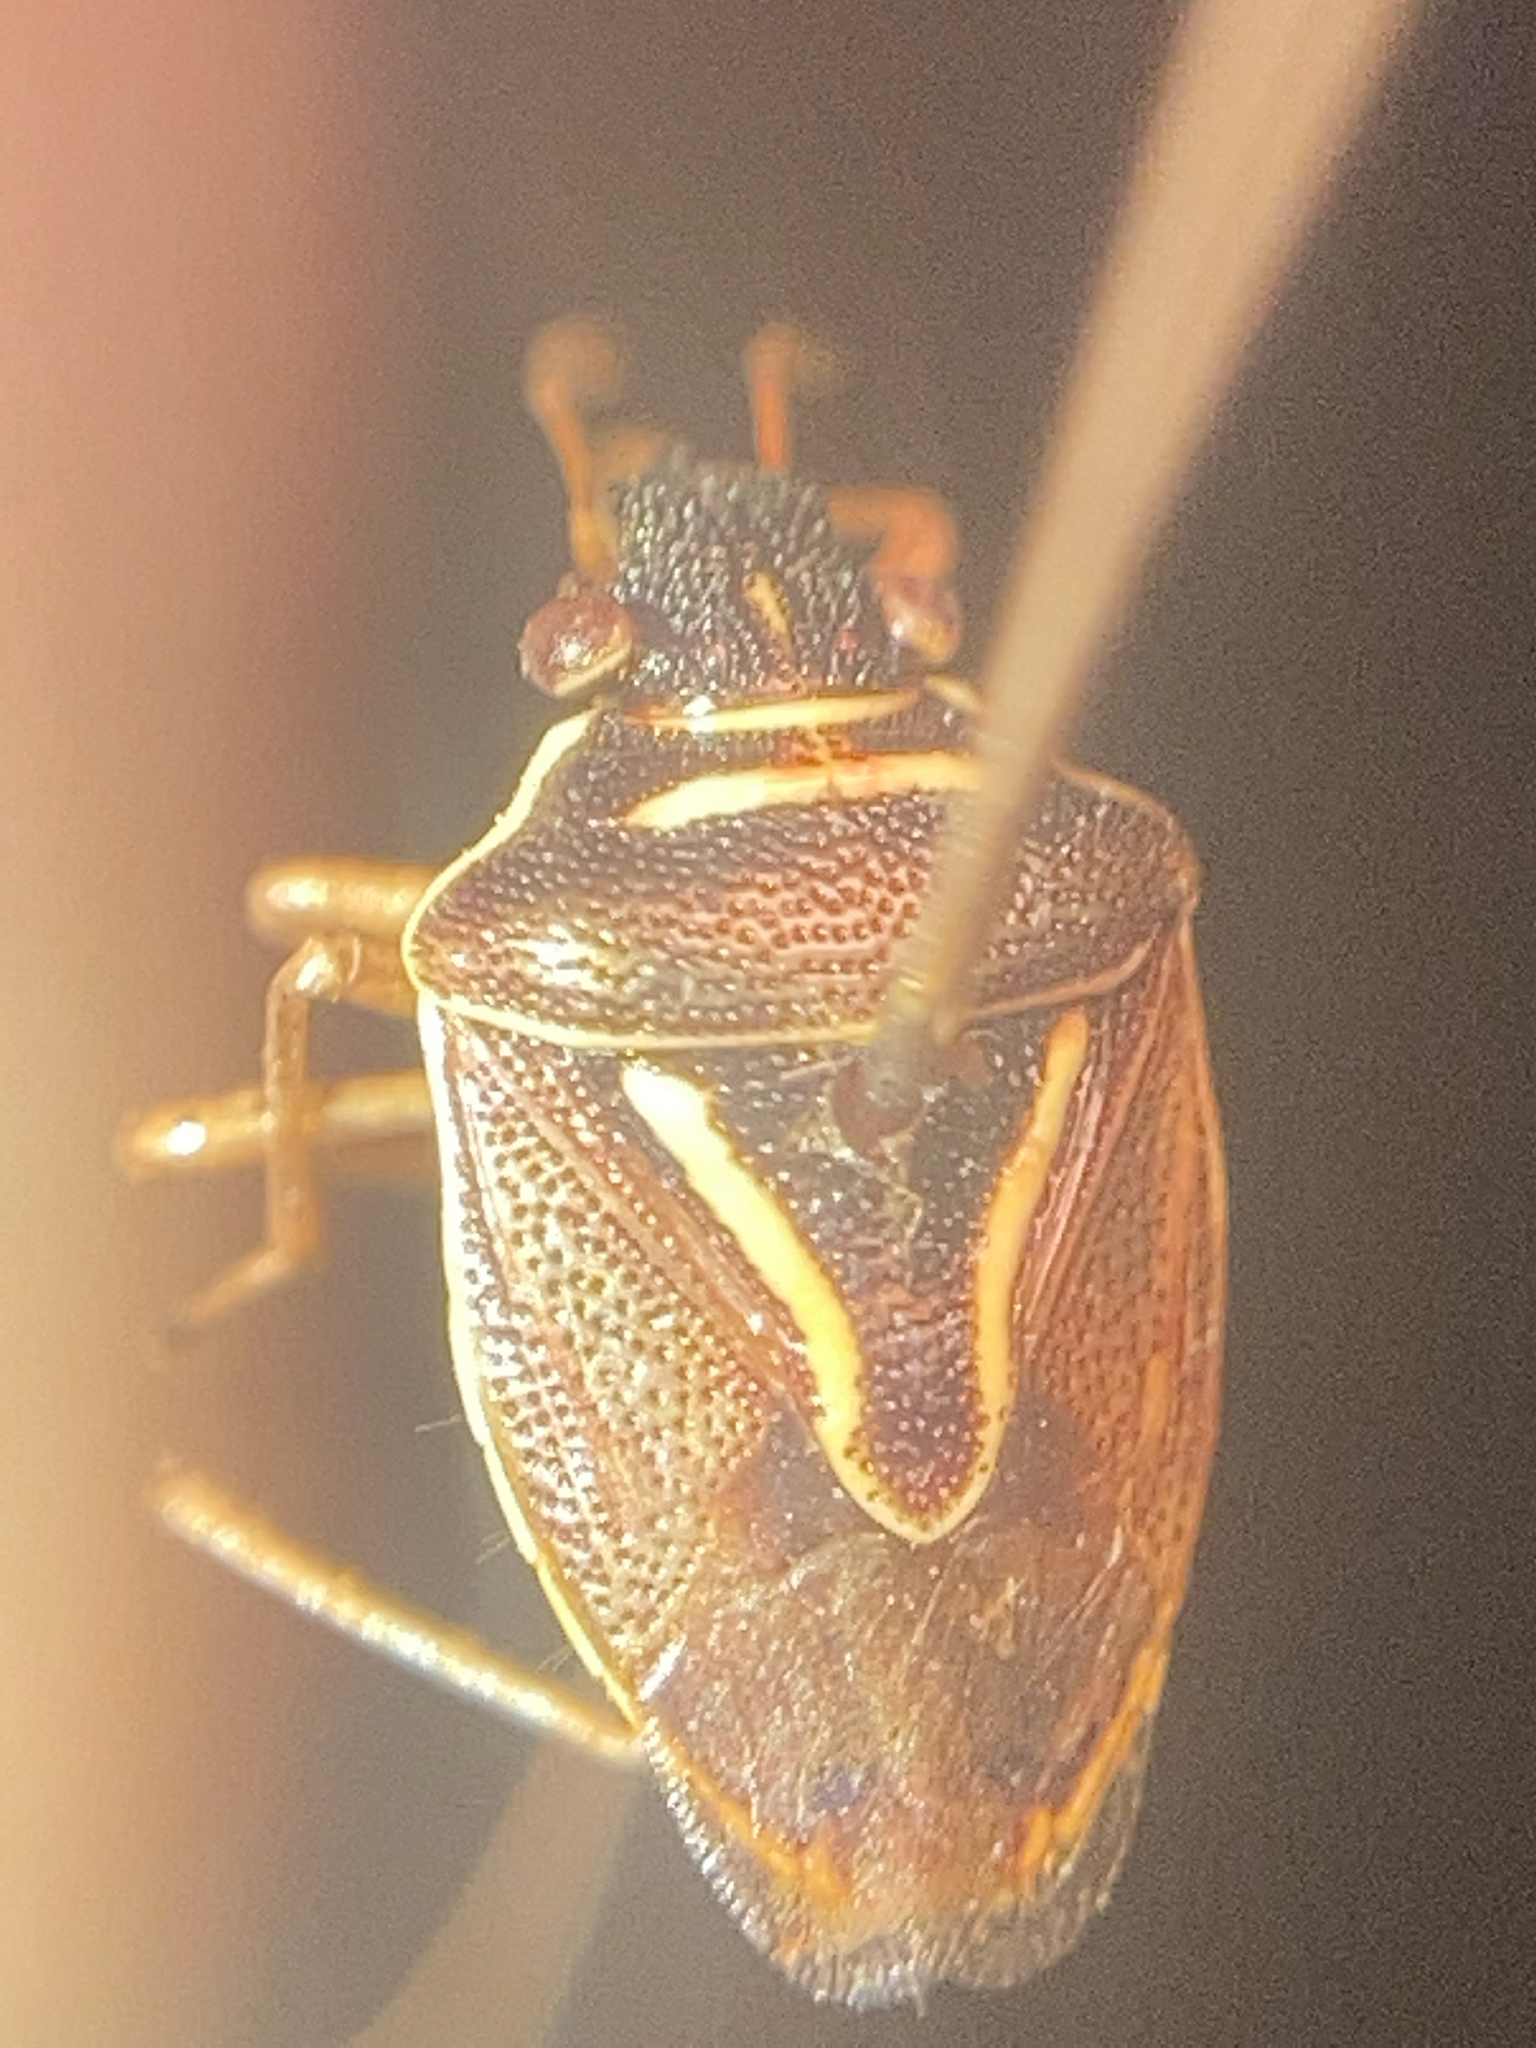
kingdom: Animalia
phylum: Arthropoda
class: Insecta
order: Hemiptera
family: Pentatomidae
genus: Mormidea
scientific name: Mormidea lugens
